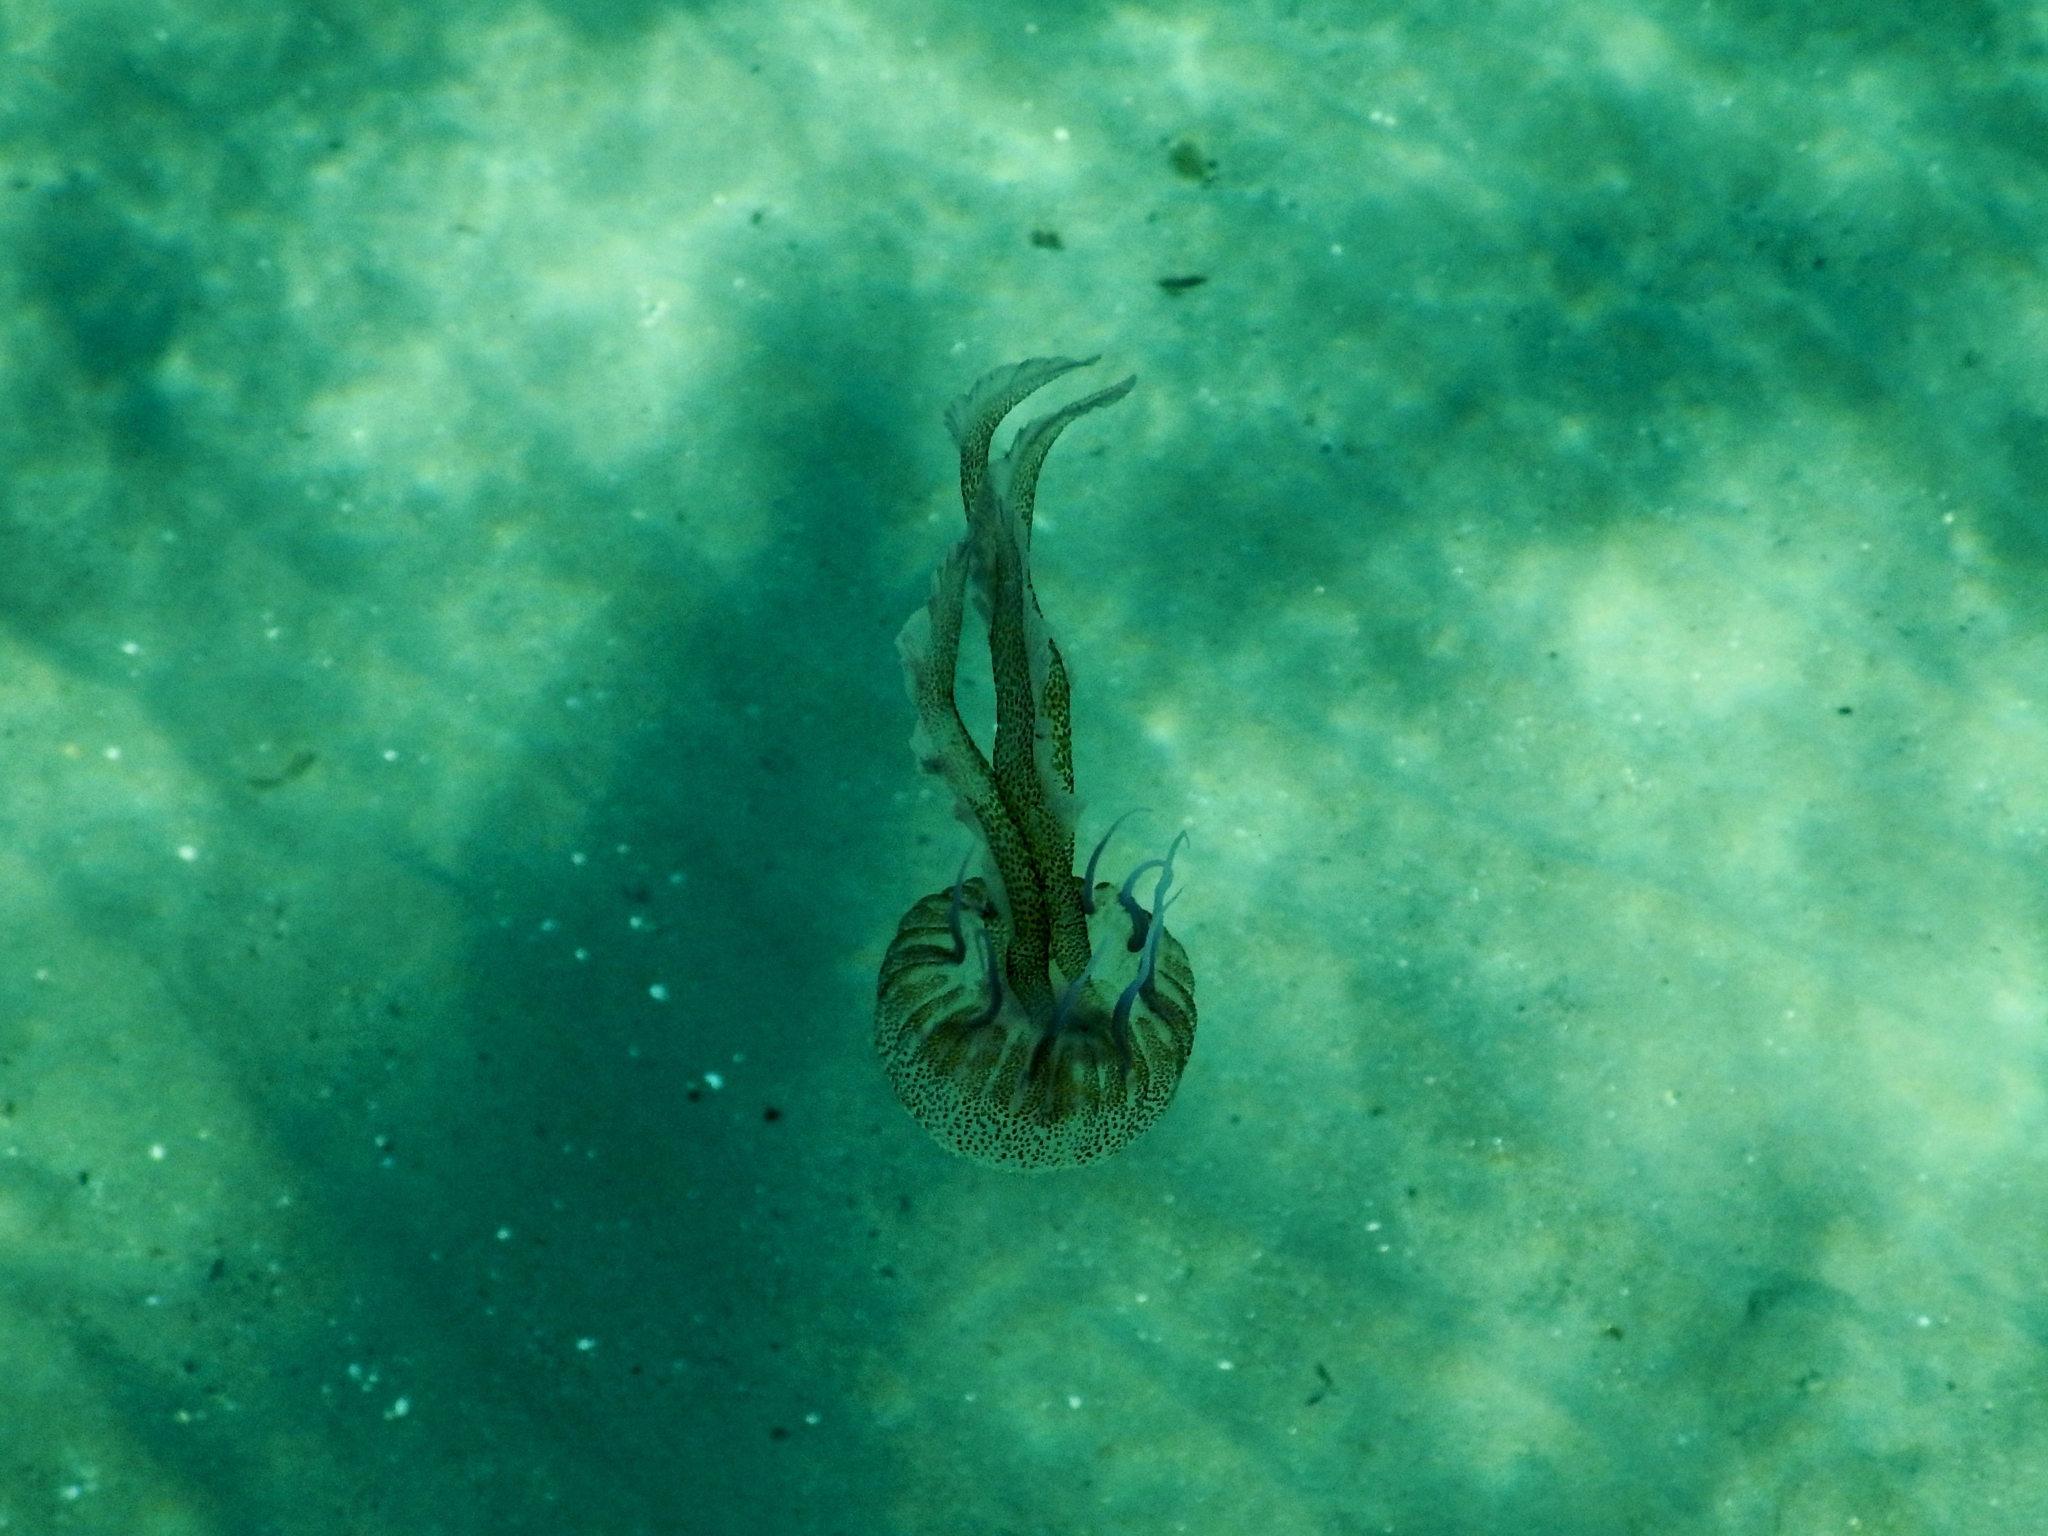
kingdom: Animalia
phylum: Cnidaria
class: Scyphozoa
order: Semaeostomeae
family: Pelagiidae
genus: Pelagia
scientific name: Pelagia noctiluca
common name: Mauve stinger
